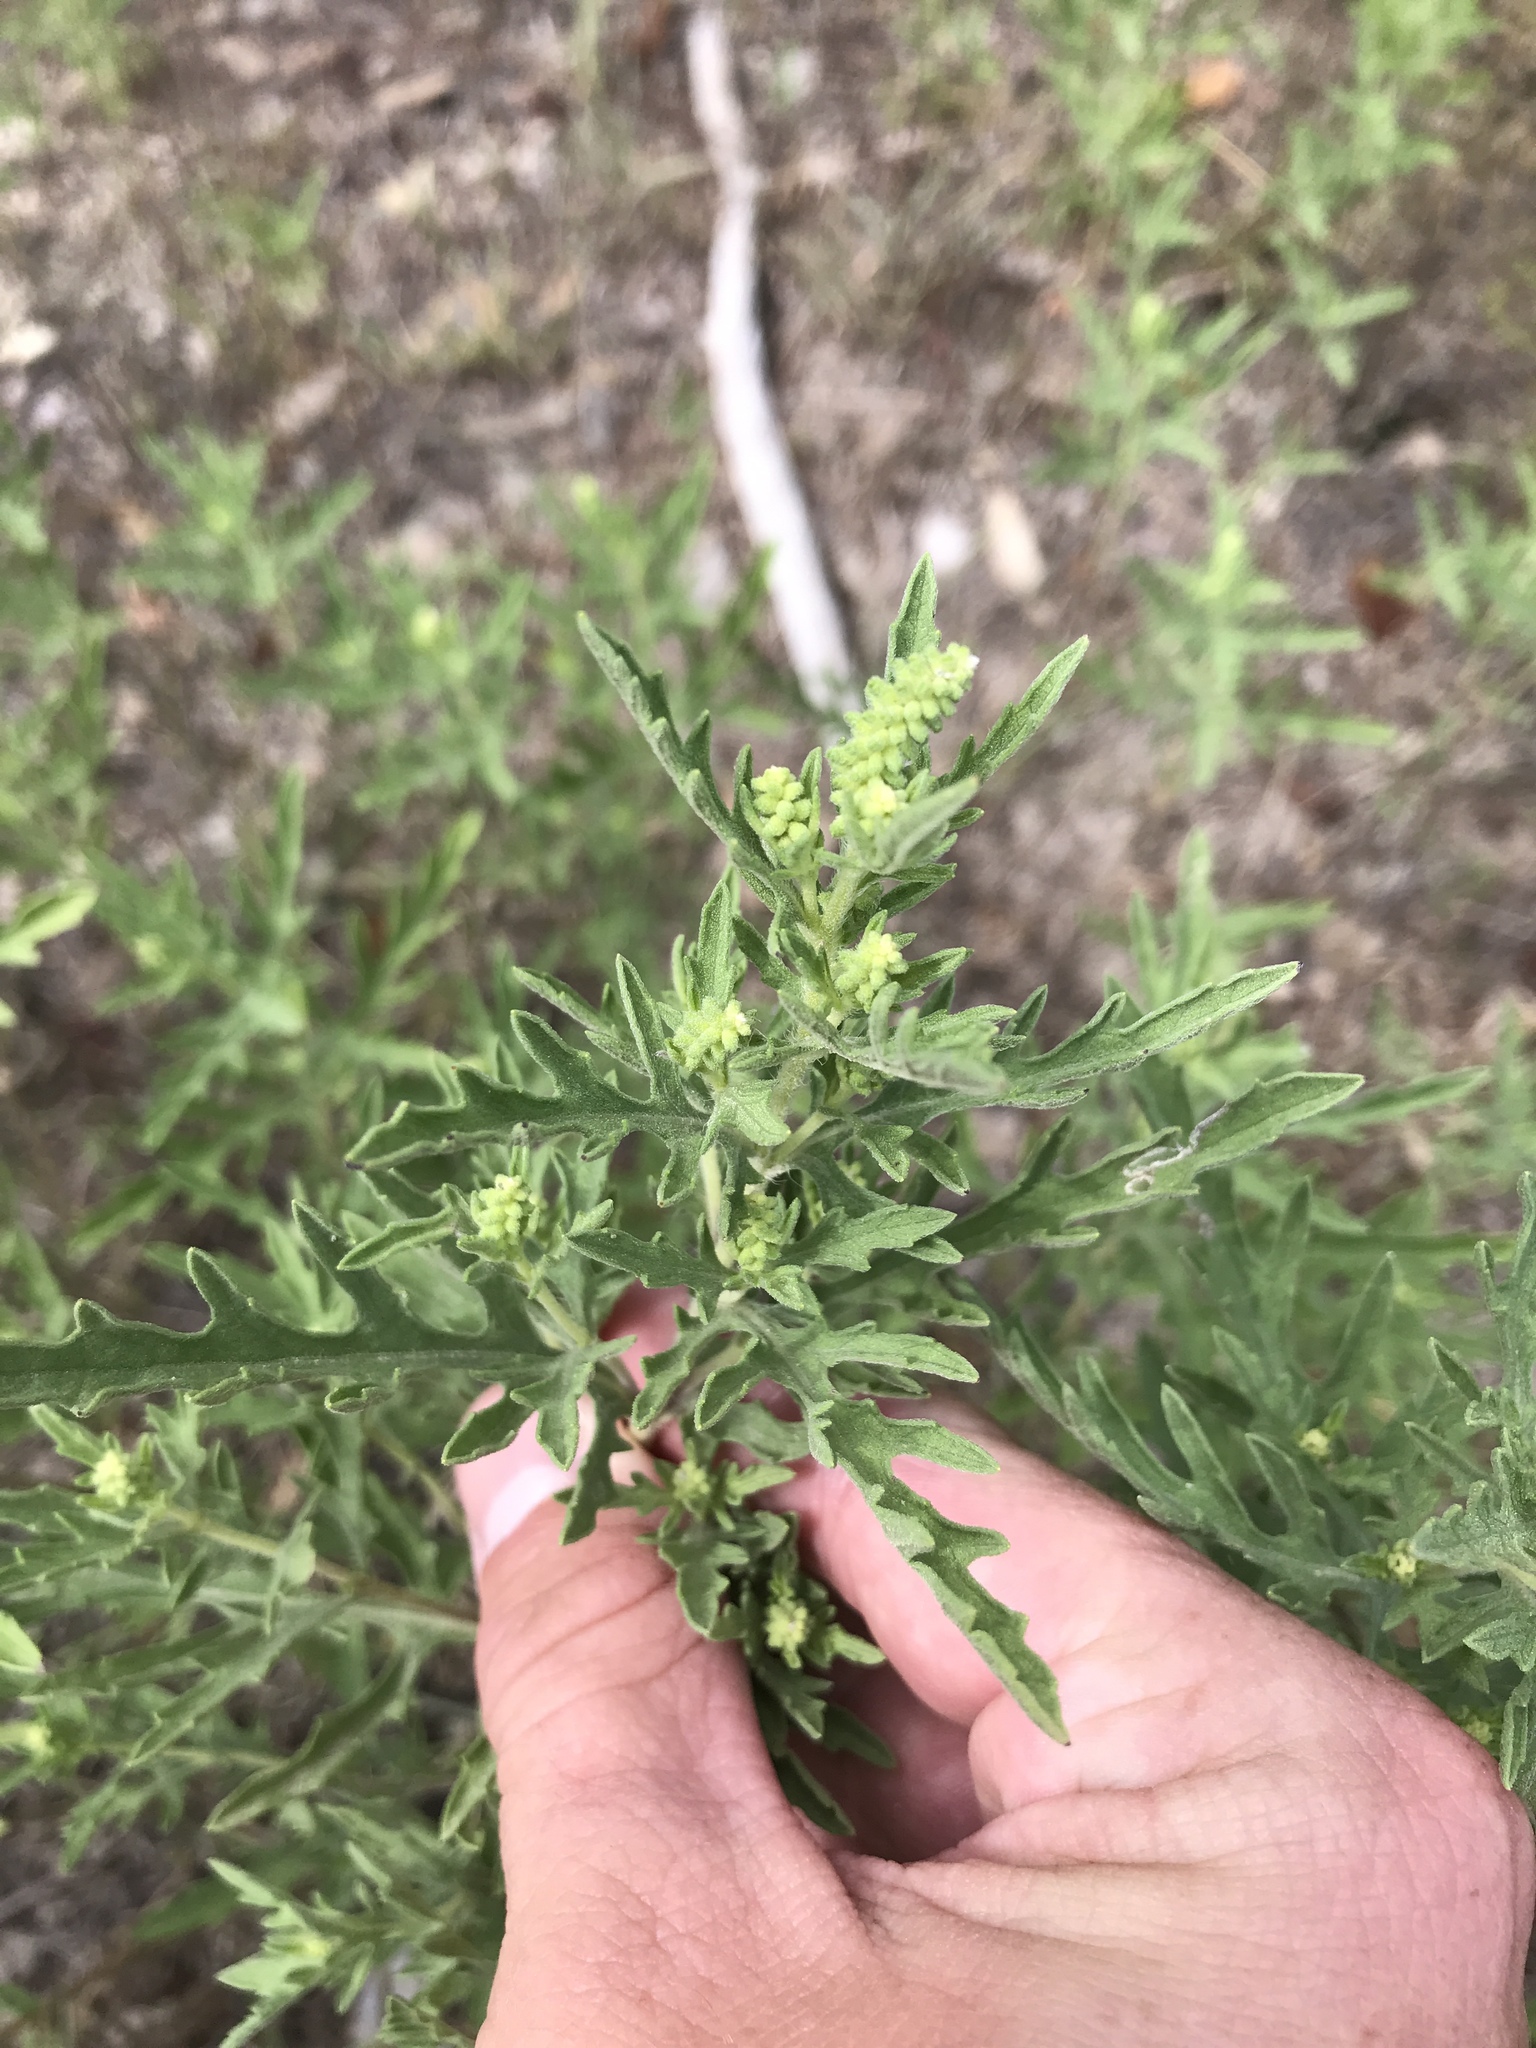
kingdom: Plantae
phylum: Tracheophyta
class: Magnoliopsida
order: Asterales
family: Asteraceae
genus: Ambrosia
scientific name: Ambrosia psilostachya
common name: Perennial ragweed
